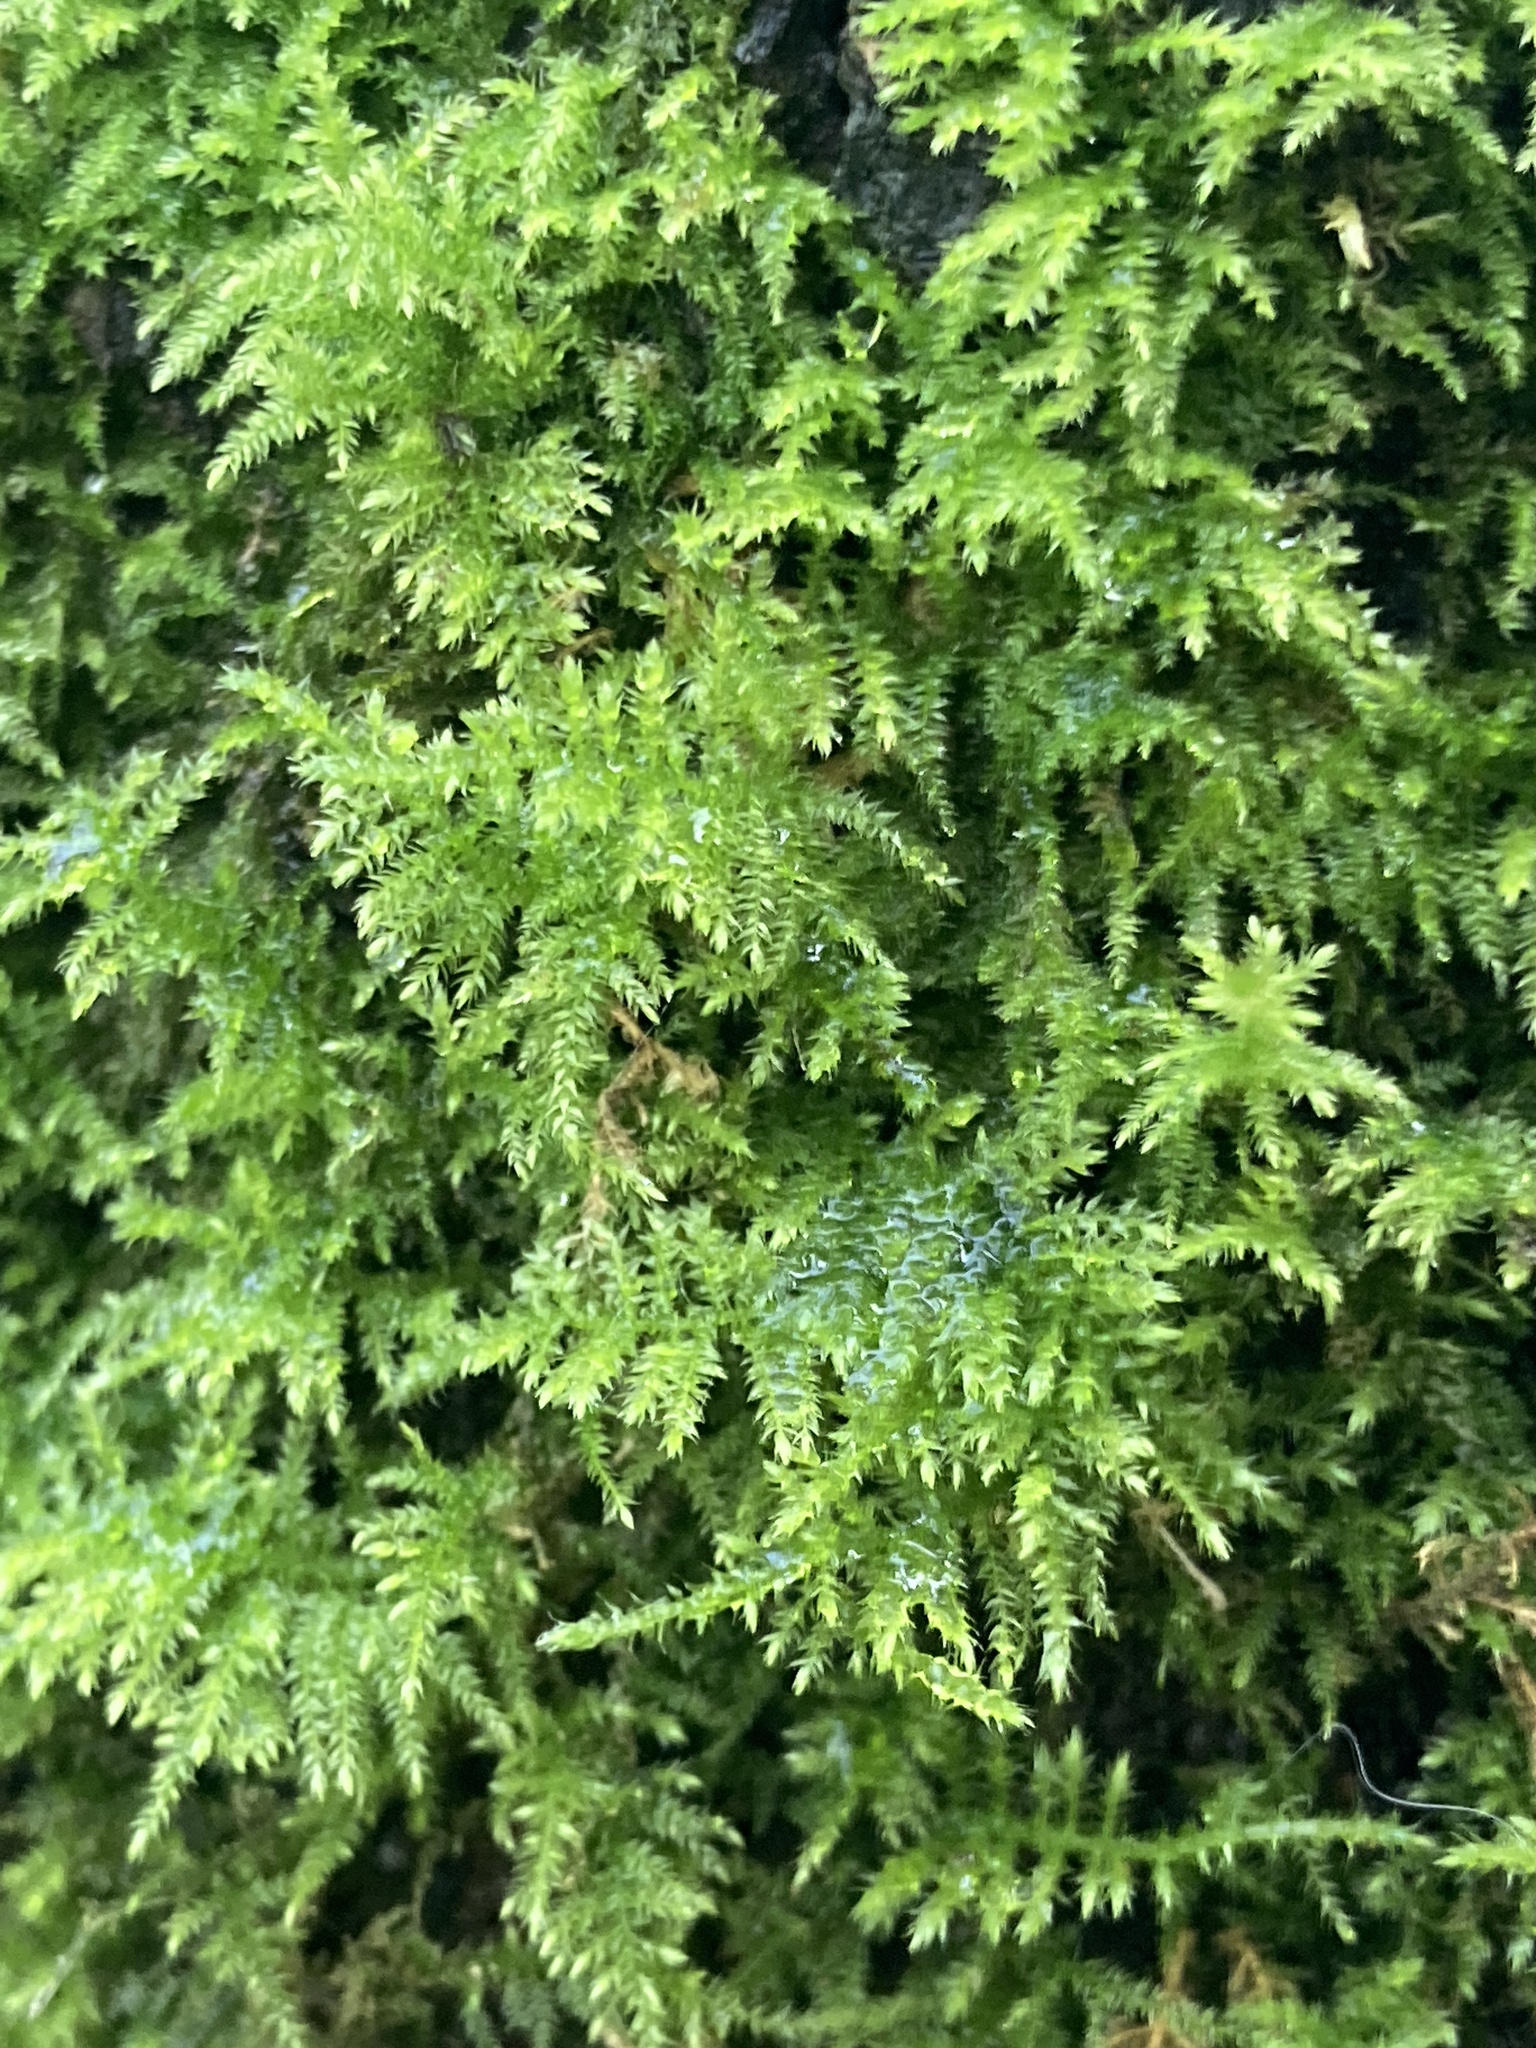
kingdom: Plantae
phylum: Bryophyta
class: Bryopsida
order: Hypnales
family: Brachytheciaceae
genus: Kindbergia
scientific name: Kindbergia praelonga
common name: Slender beaked moss
